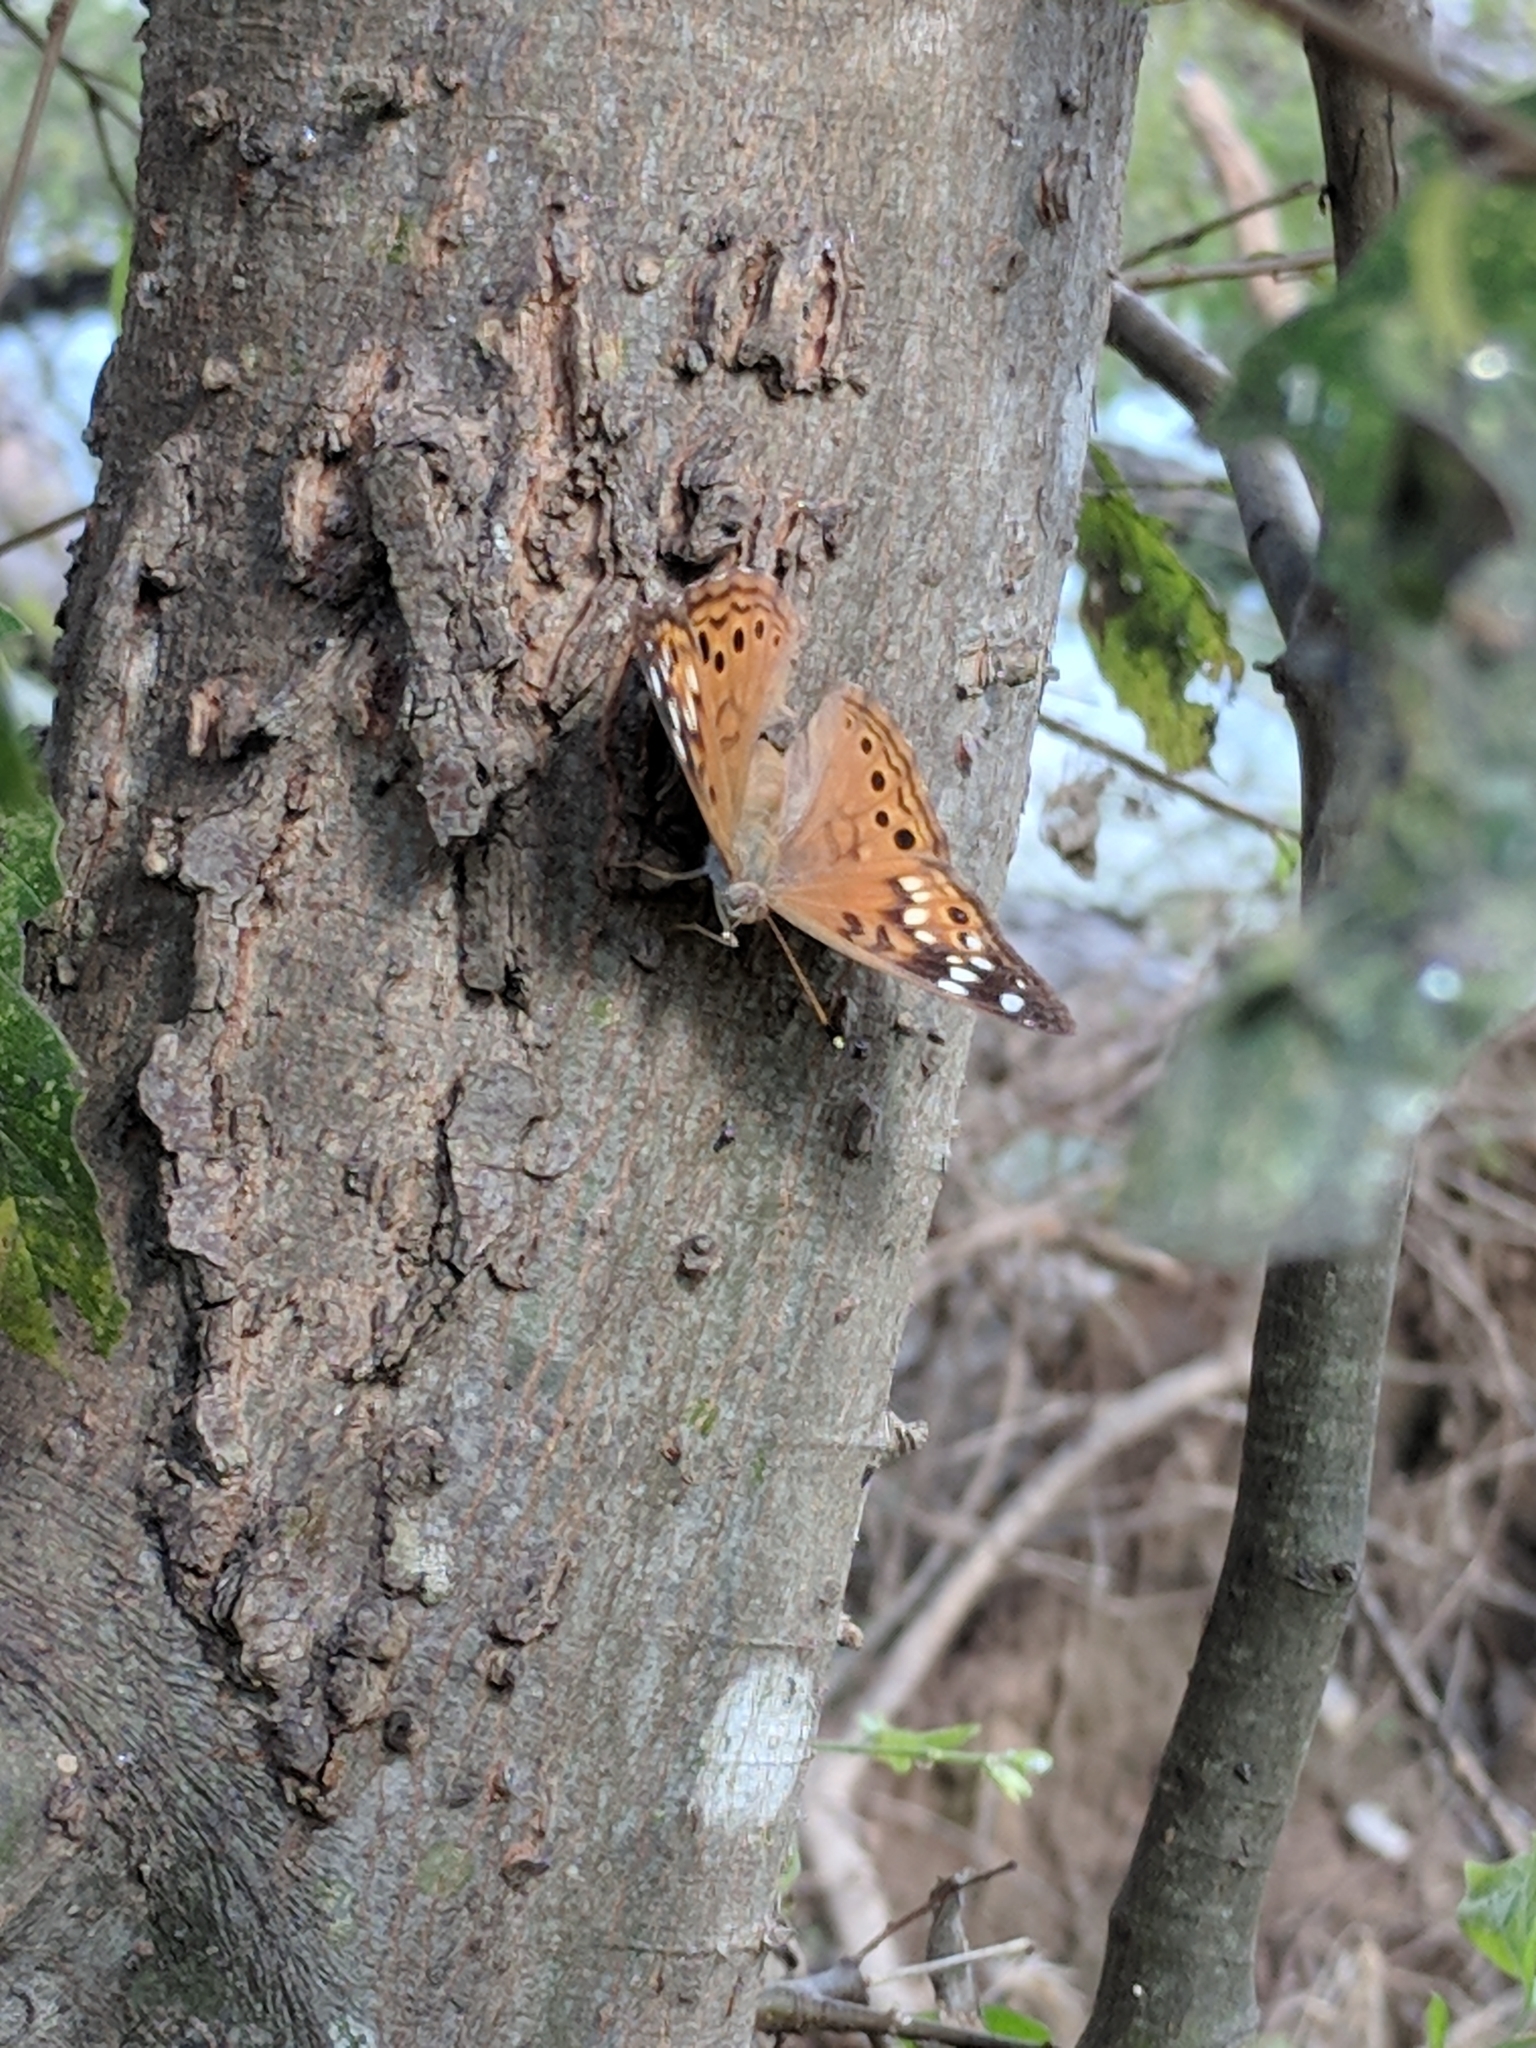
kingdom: Animalia
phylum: Arthropoda
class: Insecta
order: Lepidoptera
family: Nymphalidae
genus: Asterocampa
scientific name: Asterocampa celtis
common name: Hackberry emperor
